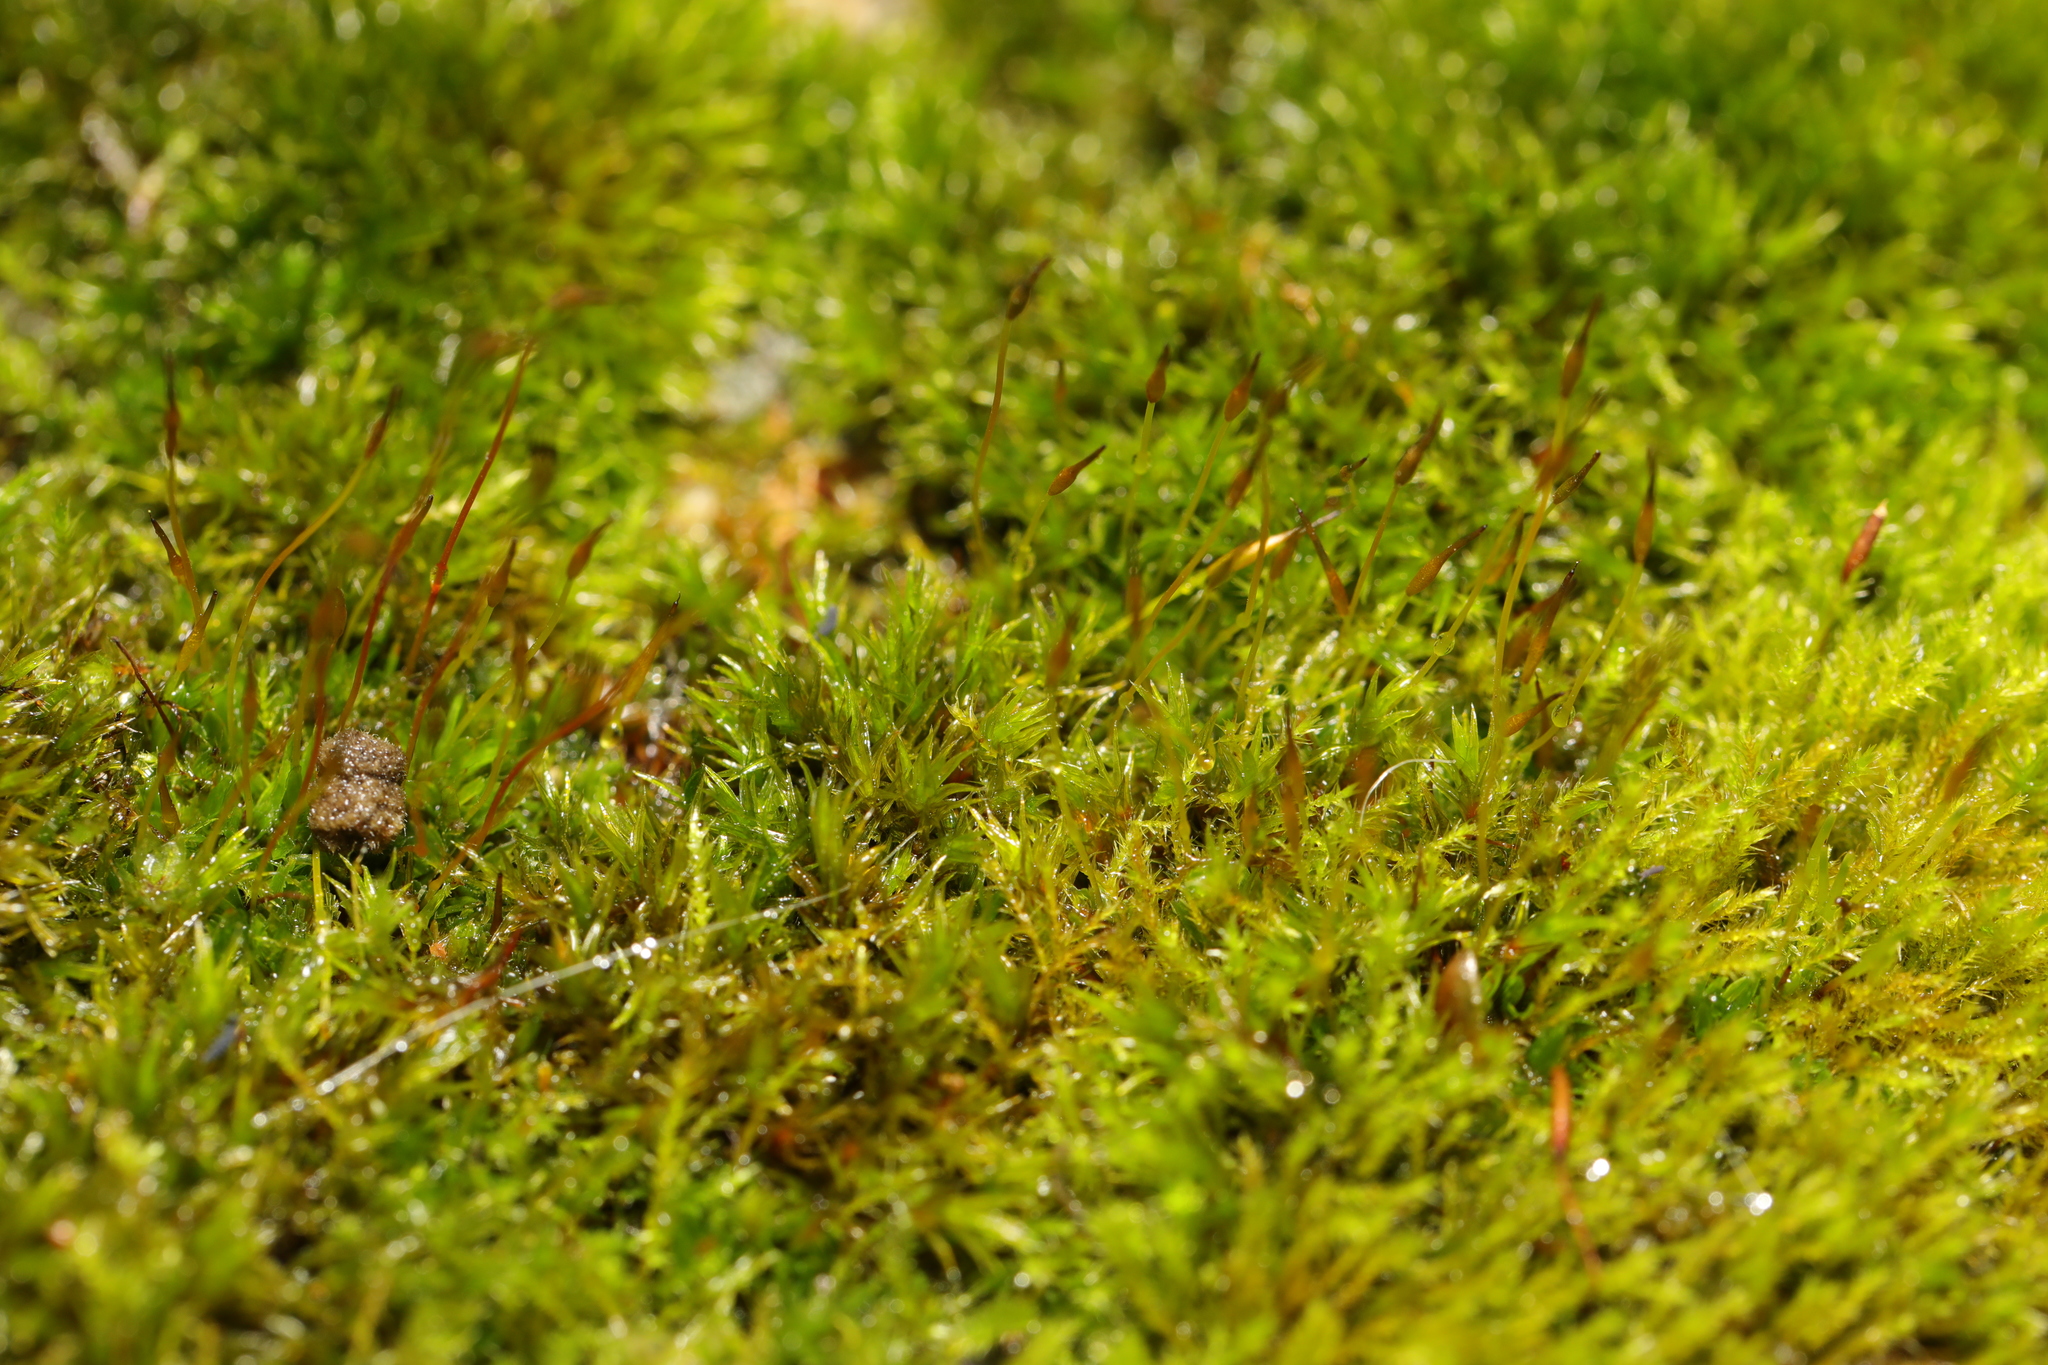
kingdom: Plantae
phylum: Bryophyta
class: Bryopsida
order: Pottiales
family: Pottiaceae
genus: Tortula
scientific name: Tortula muralis
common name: Wall screw-moss
